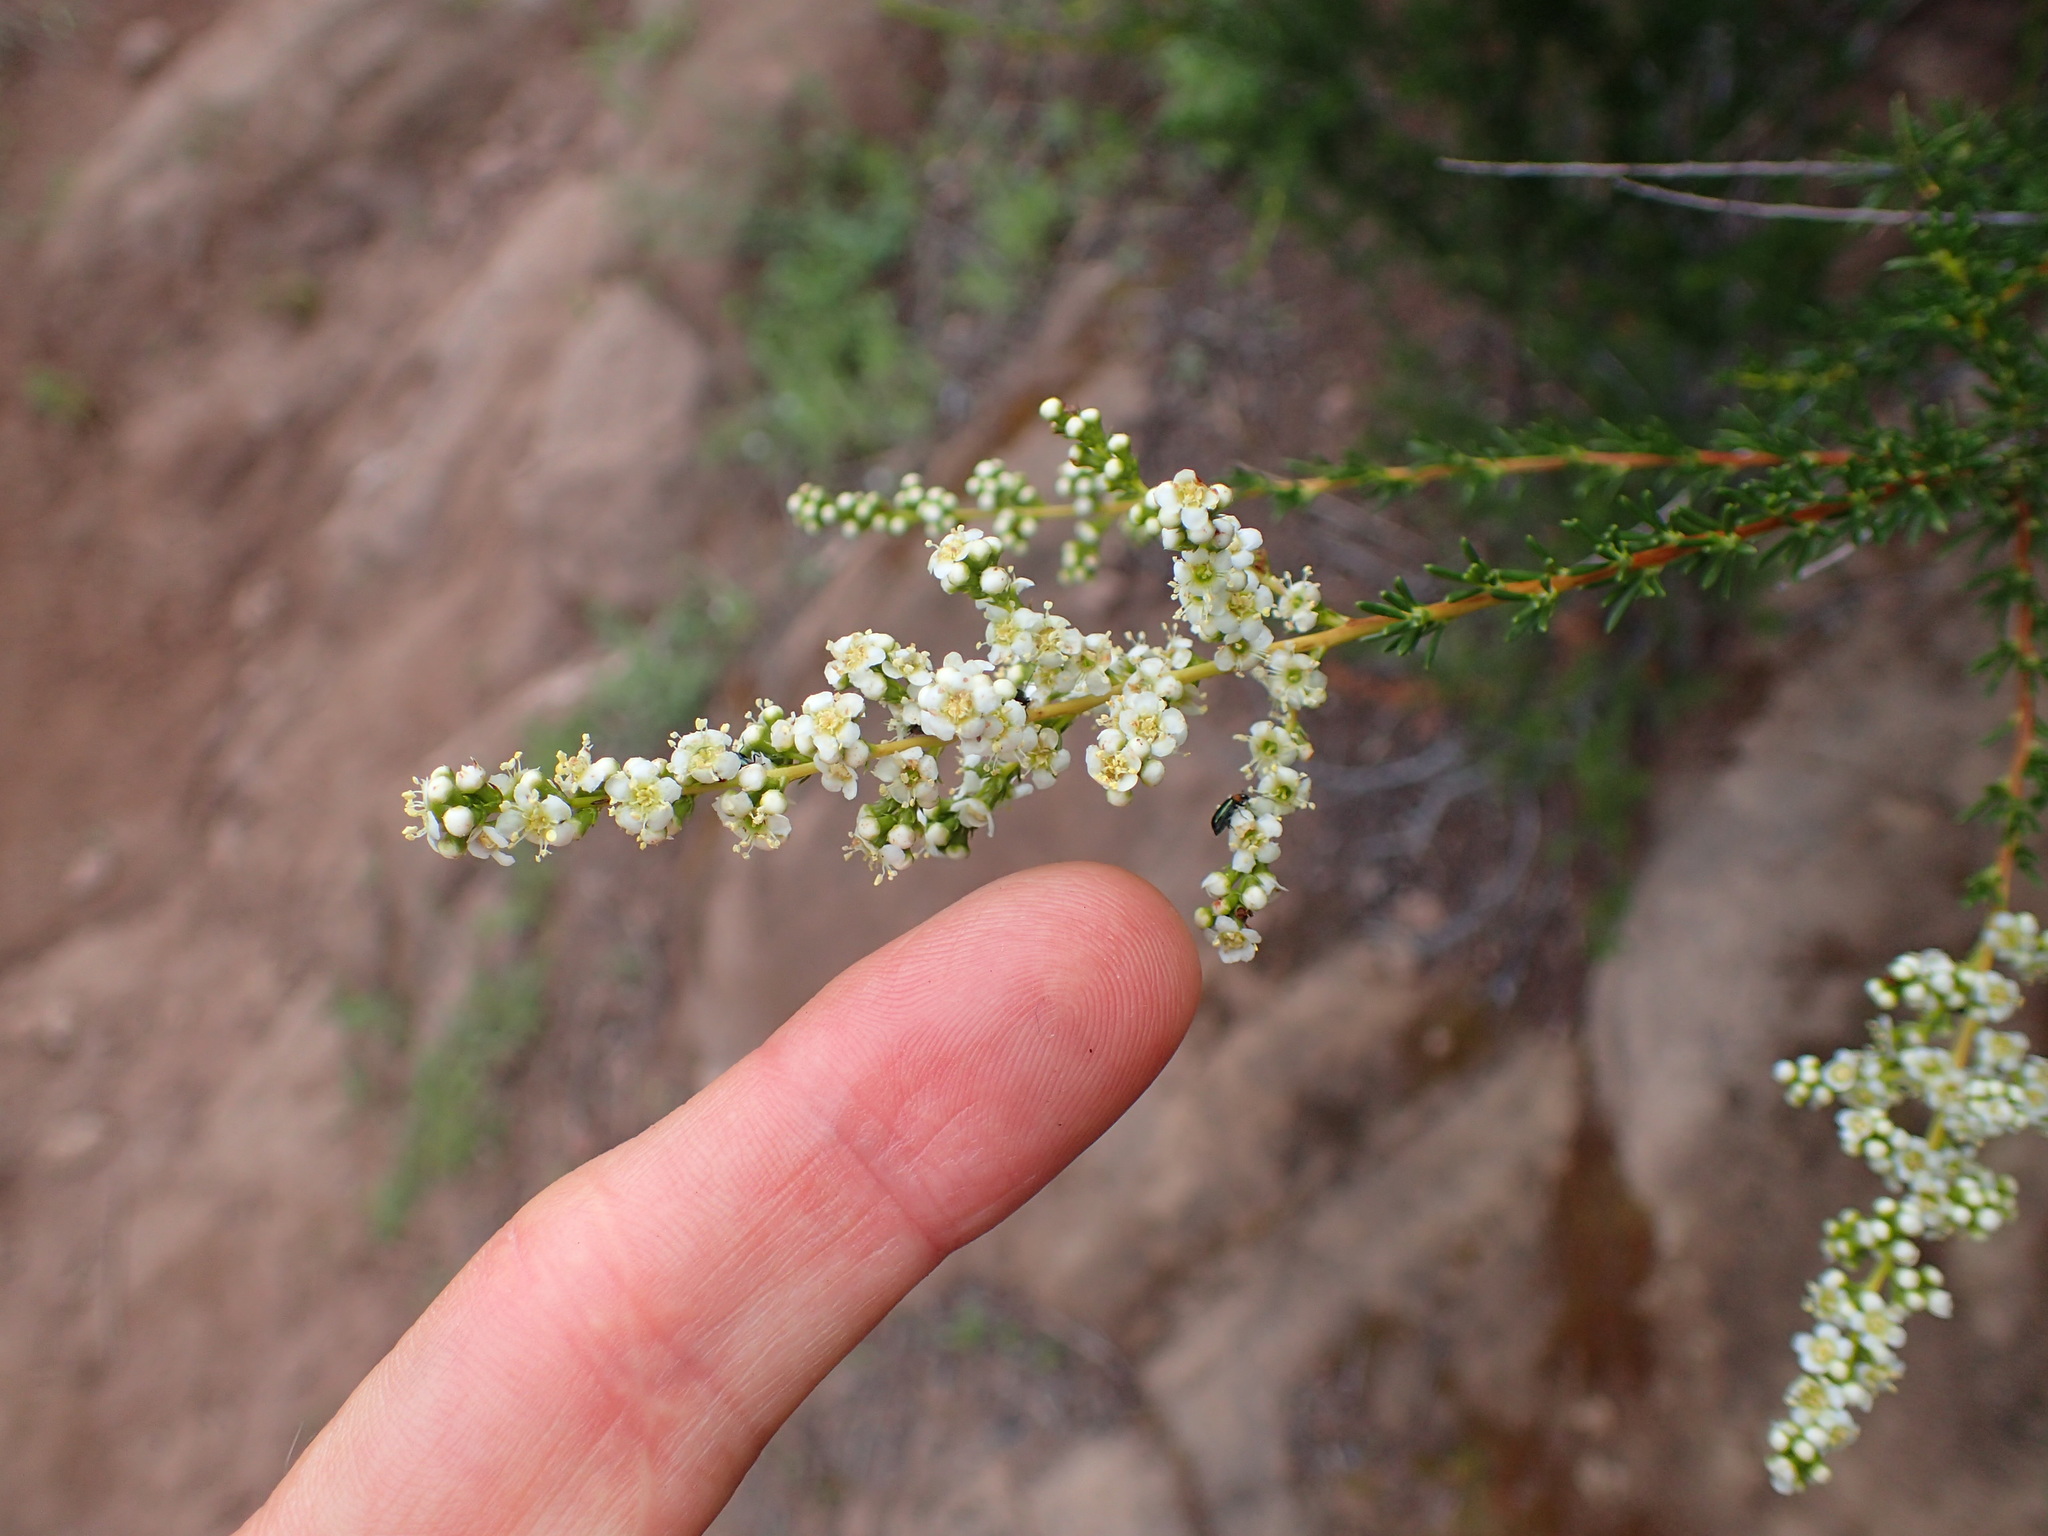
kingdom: Plantae
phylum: Tracheophyta
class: Magnoliopsida
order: Rosales
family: Rosaceae
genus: Adenostoma
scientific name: Adenostoma fasciculatum
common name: Chamise
